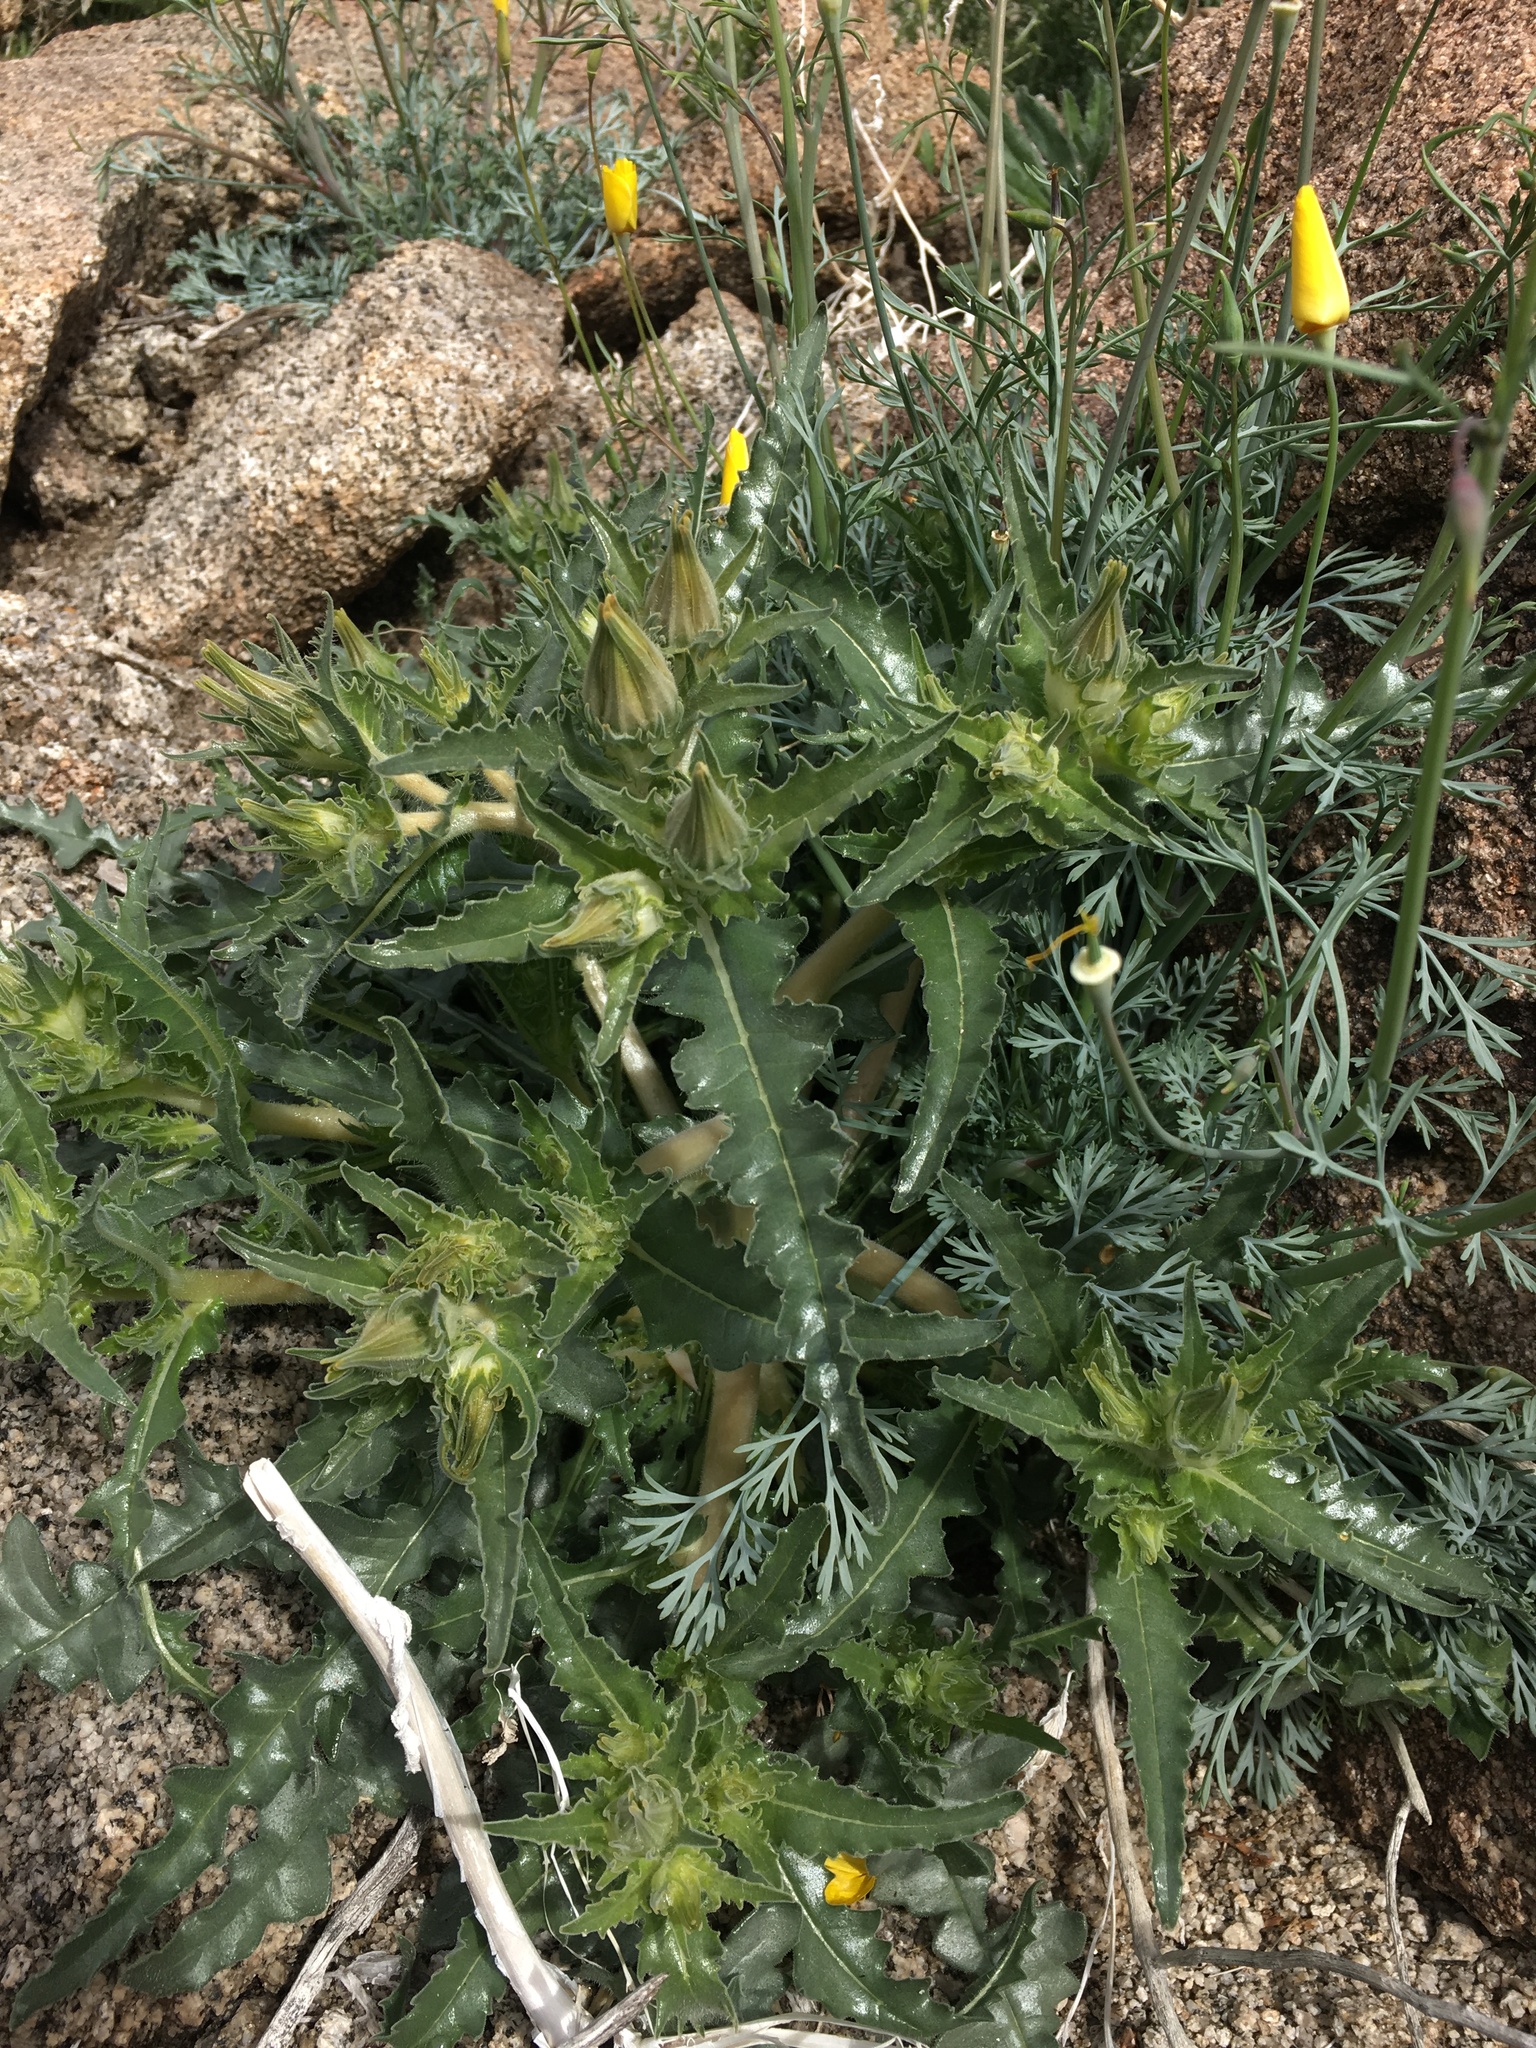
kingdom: Plantae
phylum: Tracheophyta
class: Magnoliopsida
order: Cornales
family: Loasaceae
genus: Mentzelia
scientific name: Mentzelia involucrata
